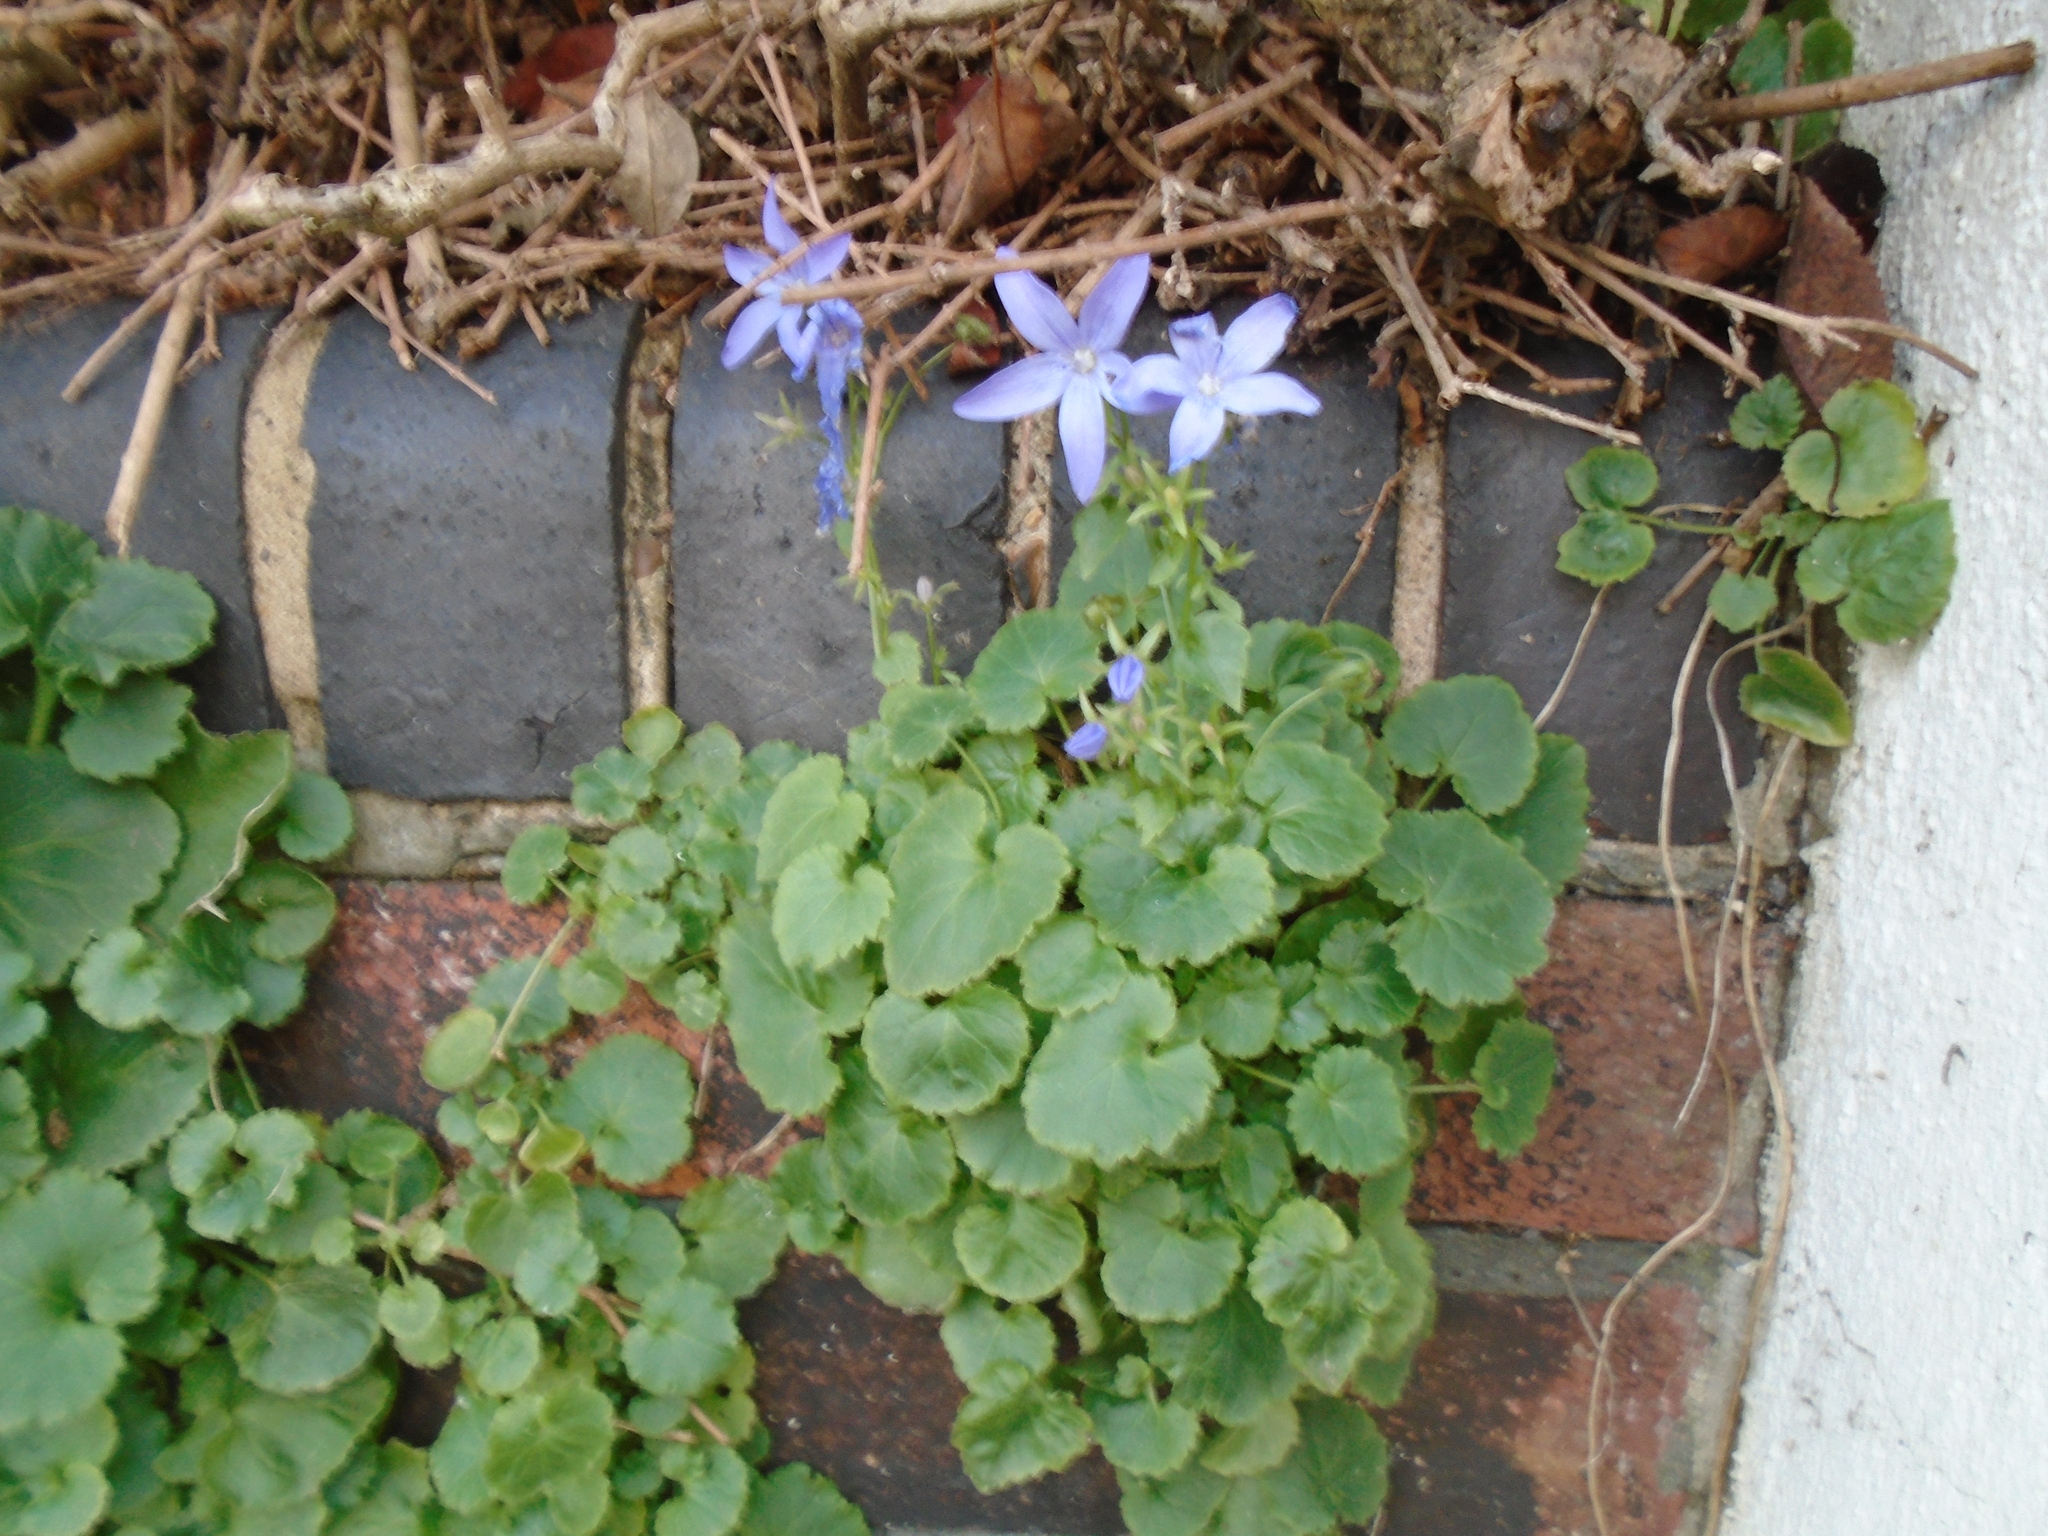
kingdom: Plantae
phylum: Tracheophyta
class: Magnoliopsida
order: Asterales
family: Campanulaceae
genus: Campanula
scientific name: Campanula poscharskyana
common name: Trailing bellflower
